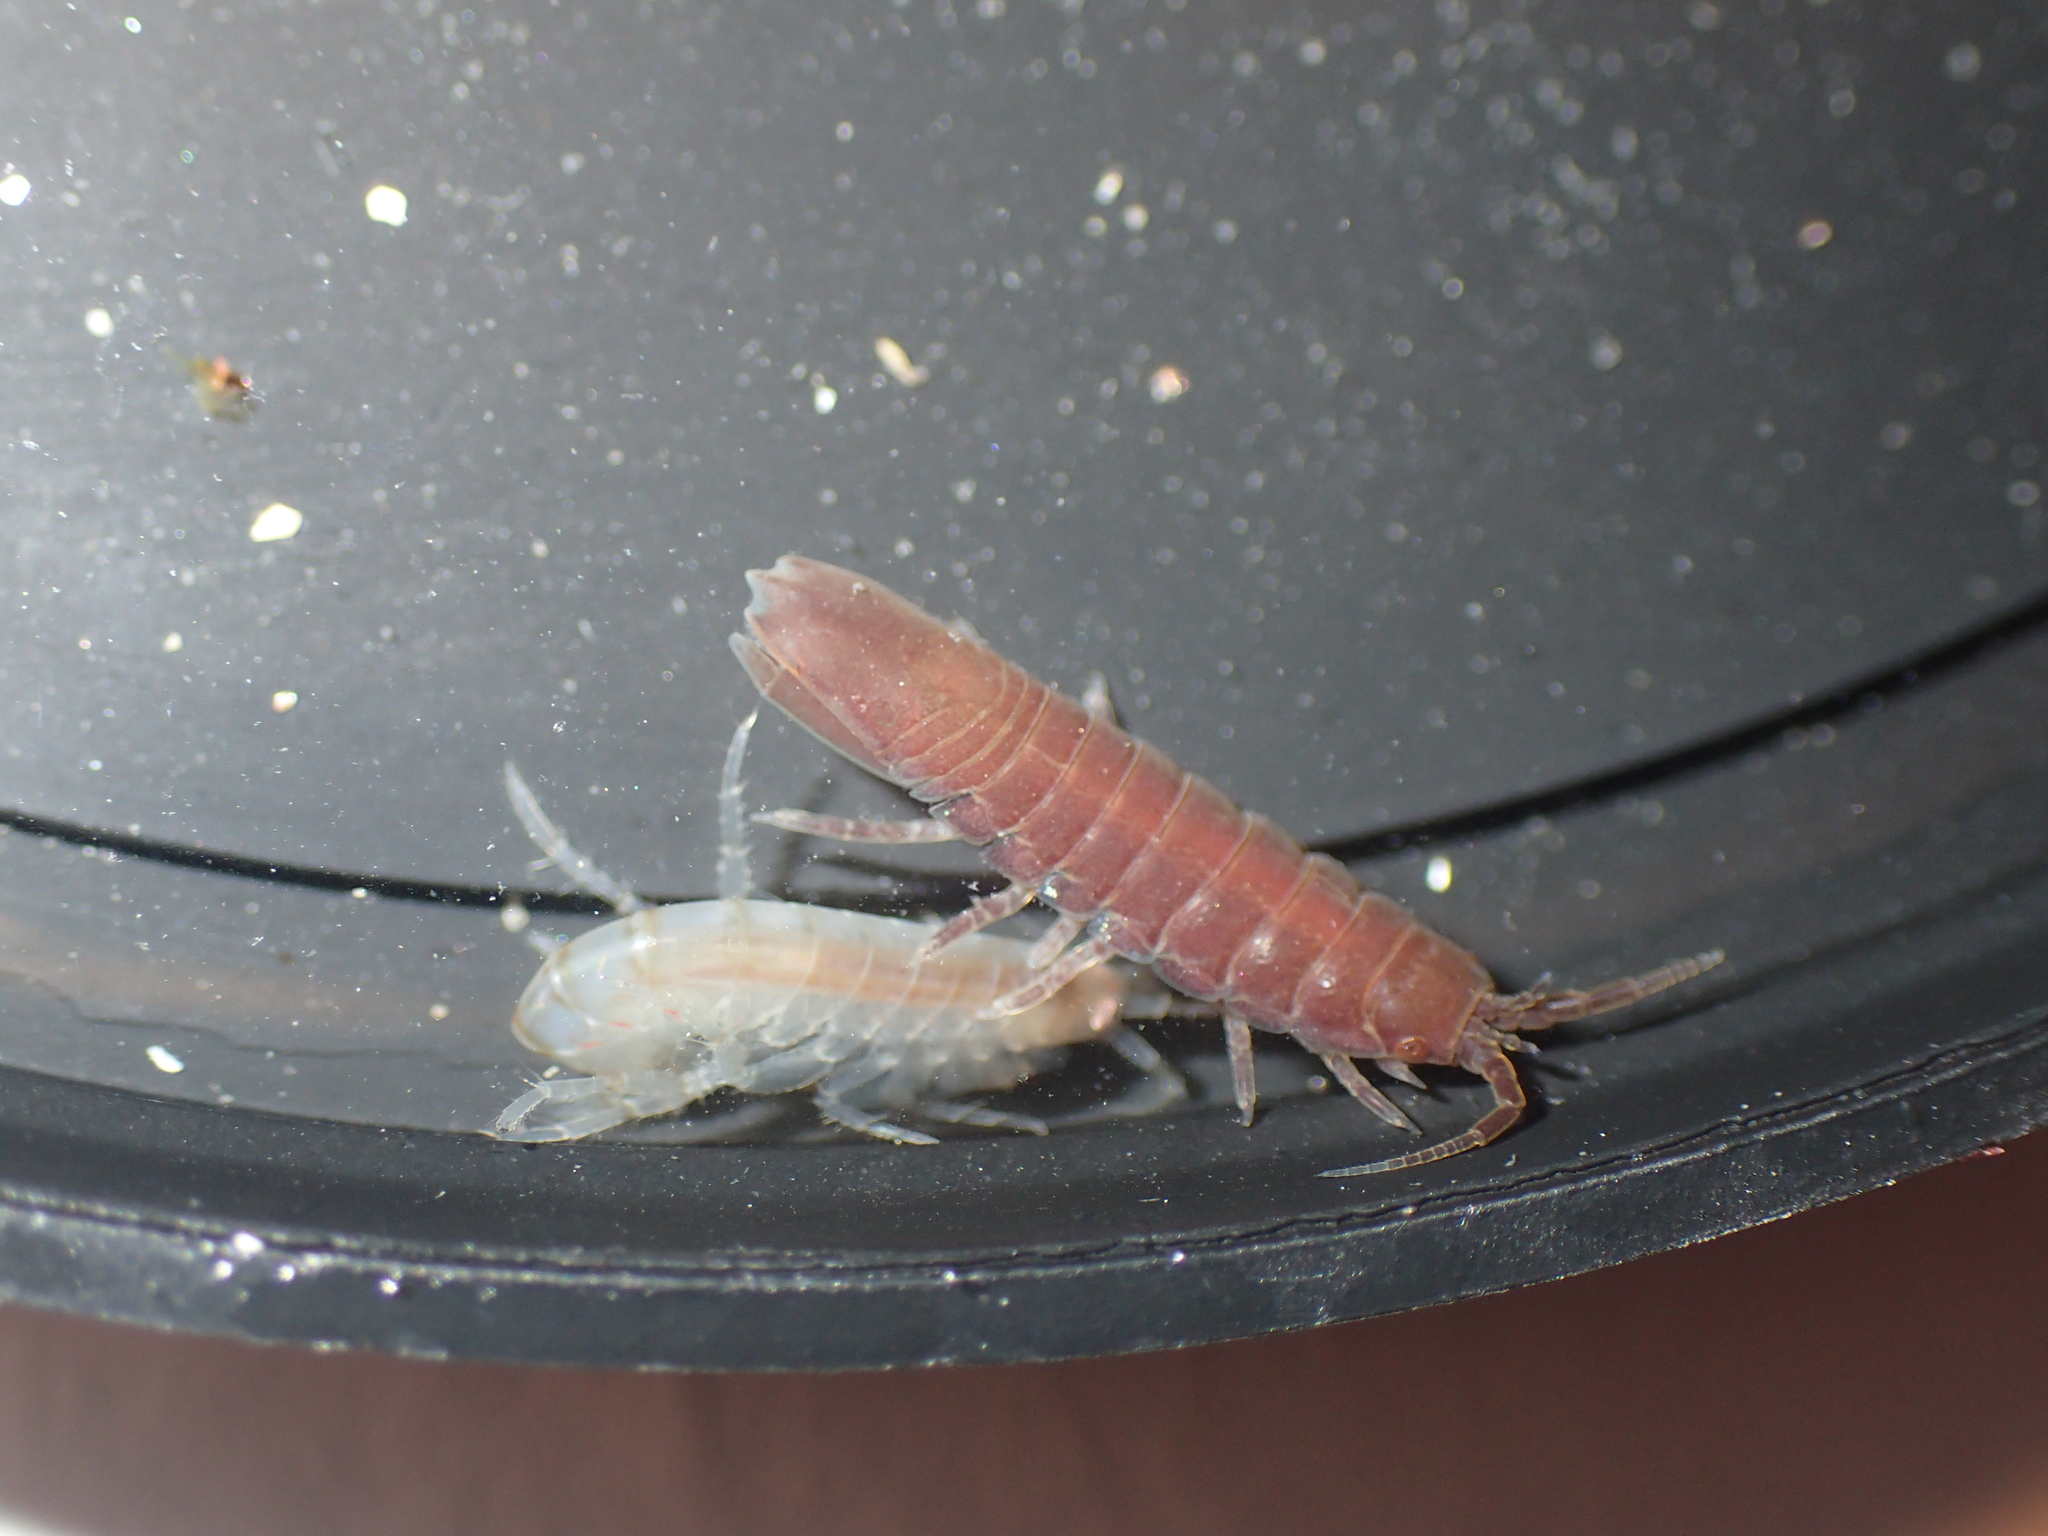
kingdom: Animalia
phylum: Arthropoda
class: Malacostraca
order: Isopoda
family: Idoteidae
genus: Idotea
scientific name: Idotea balthica
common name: Baltic isopod
